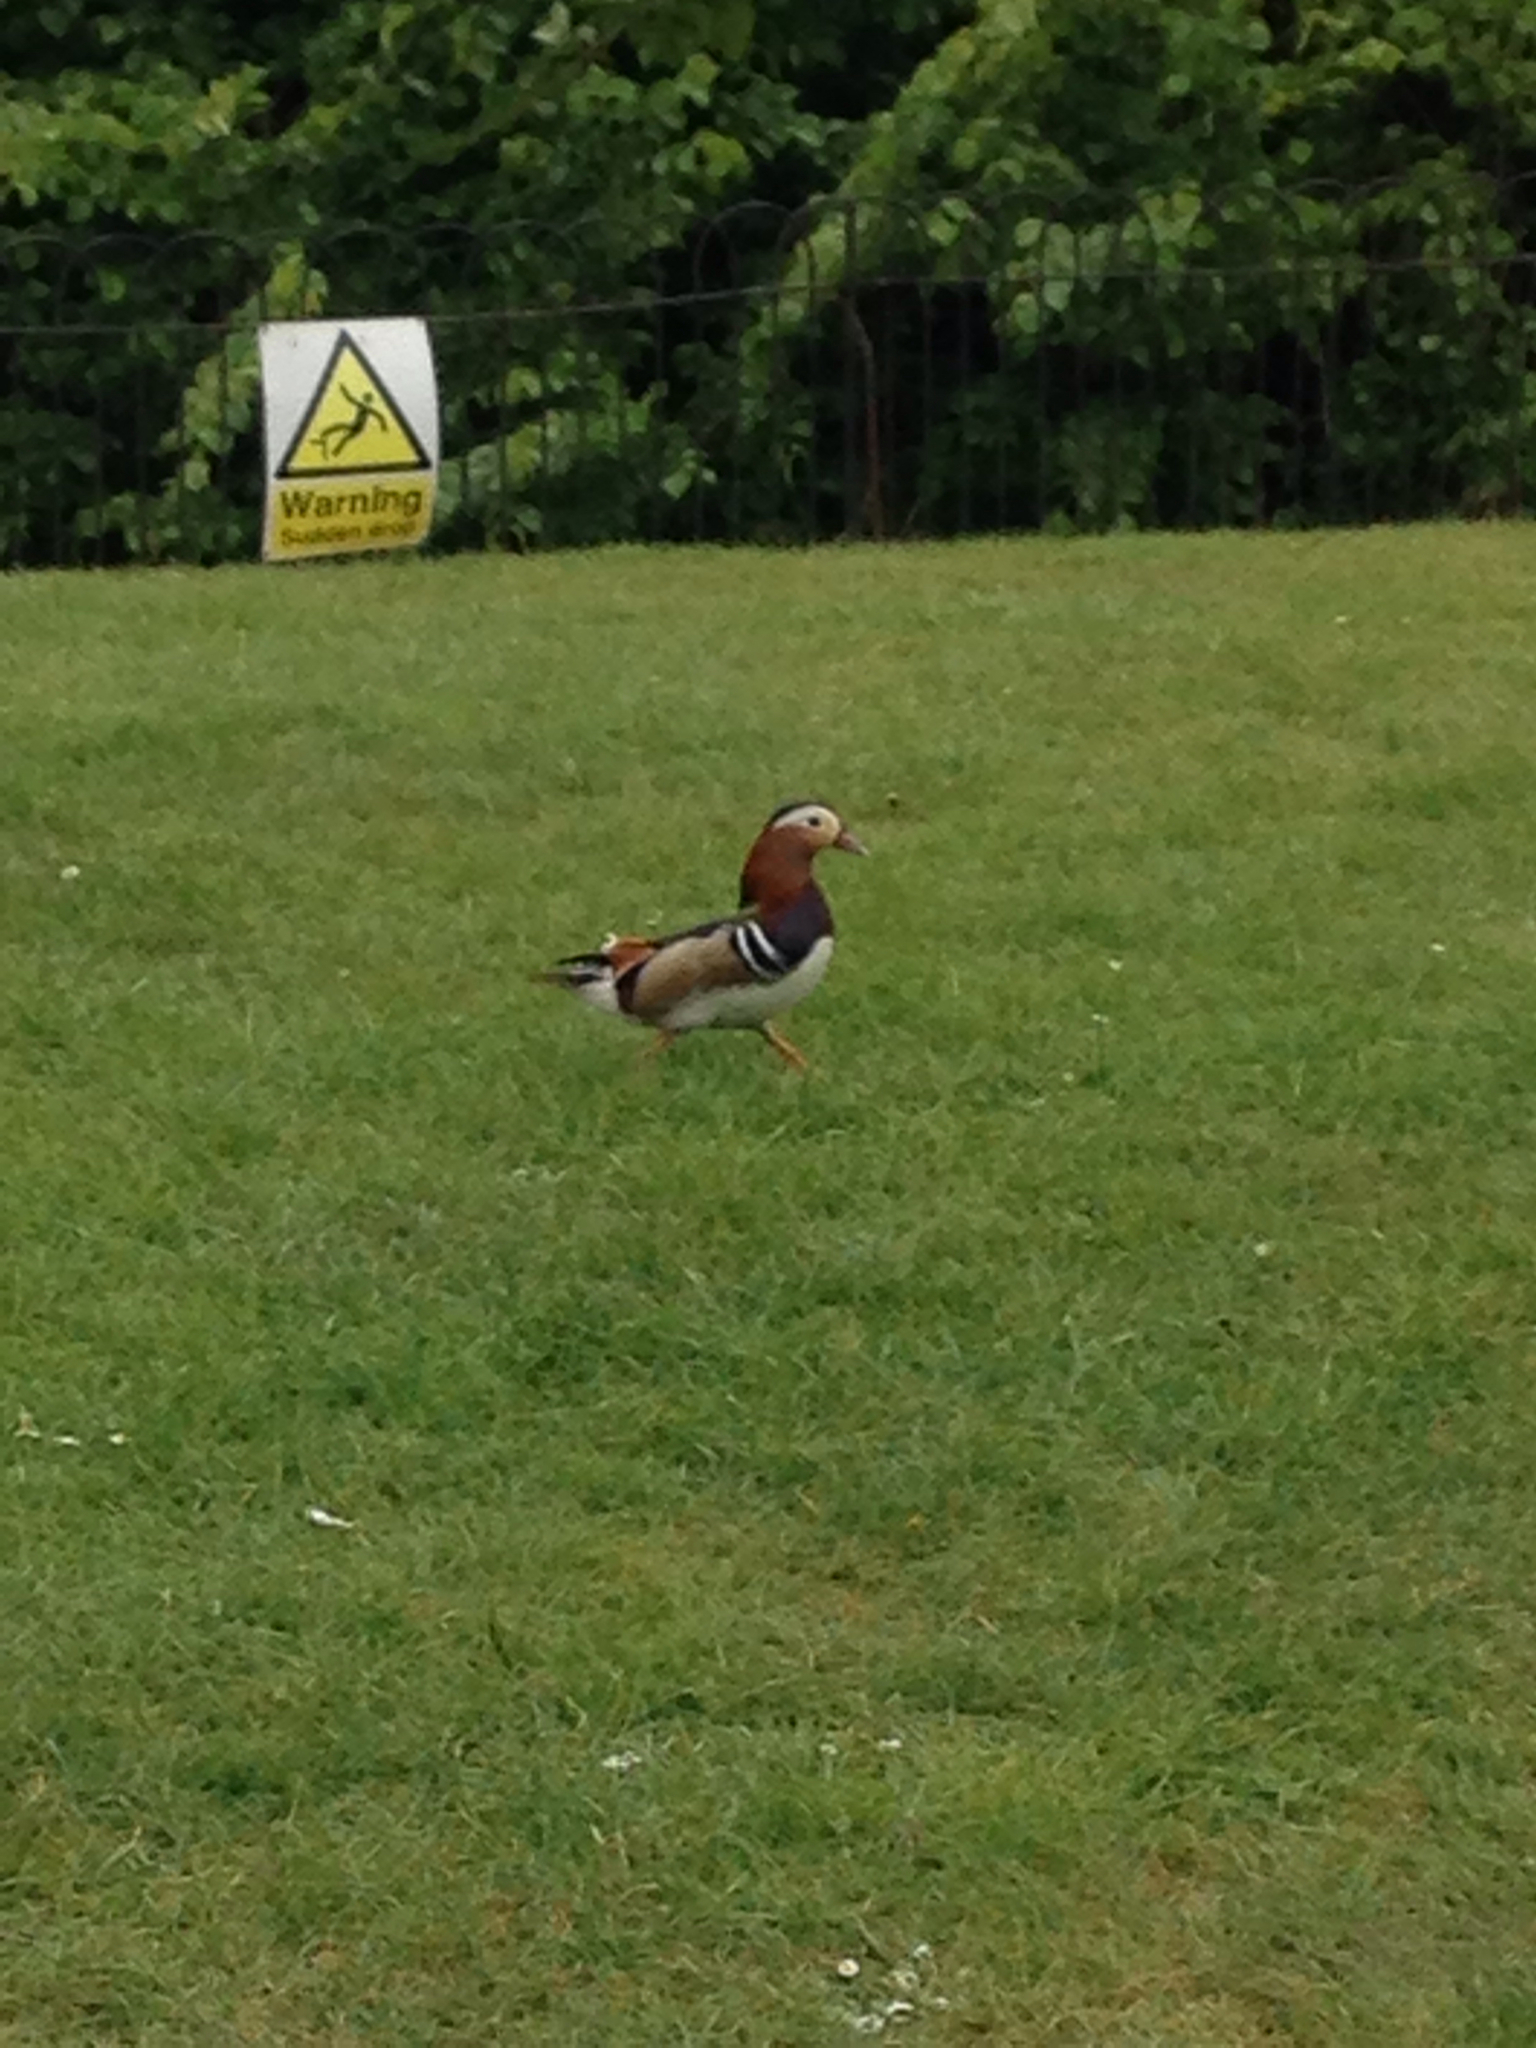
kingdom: Animalia
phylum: Chordata
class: Aves
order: Anseriformes
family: Anatidae
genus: Aix
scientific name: Aix galericulata
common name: Mandarin duck
